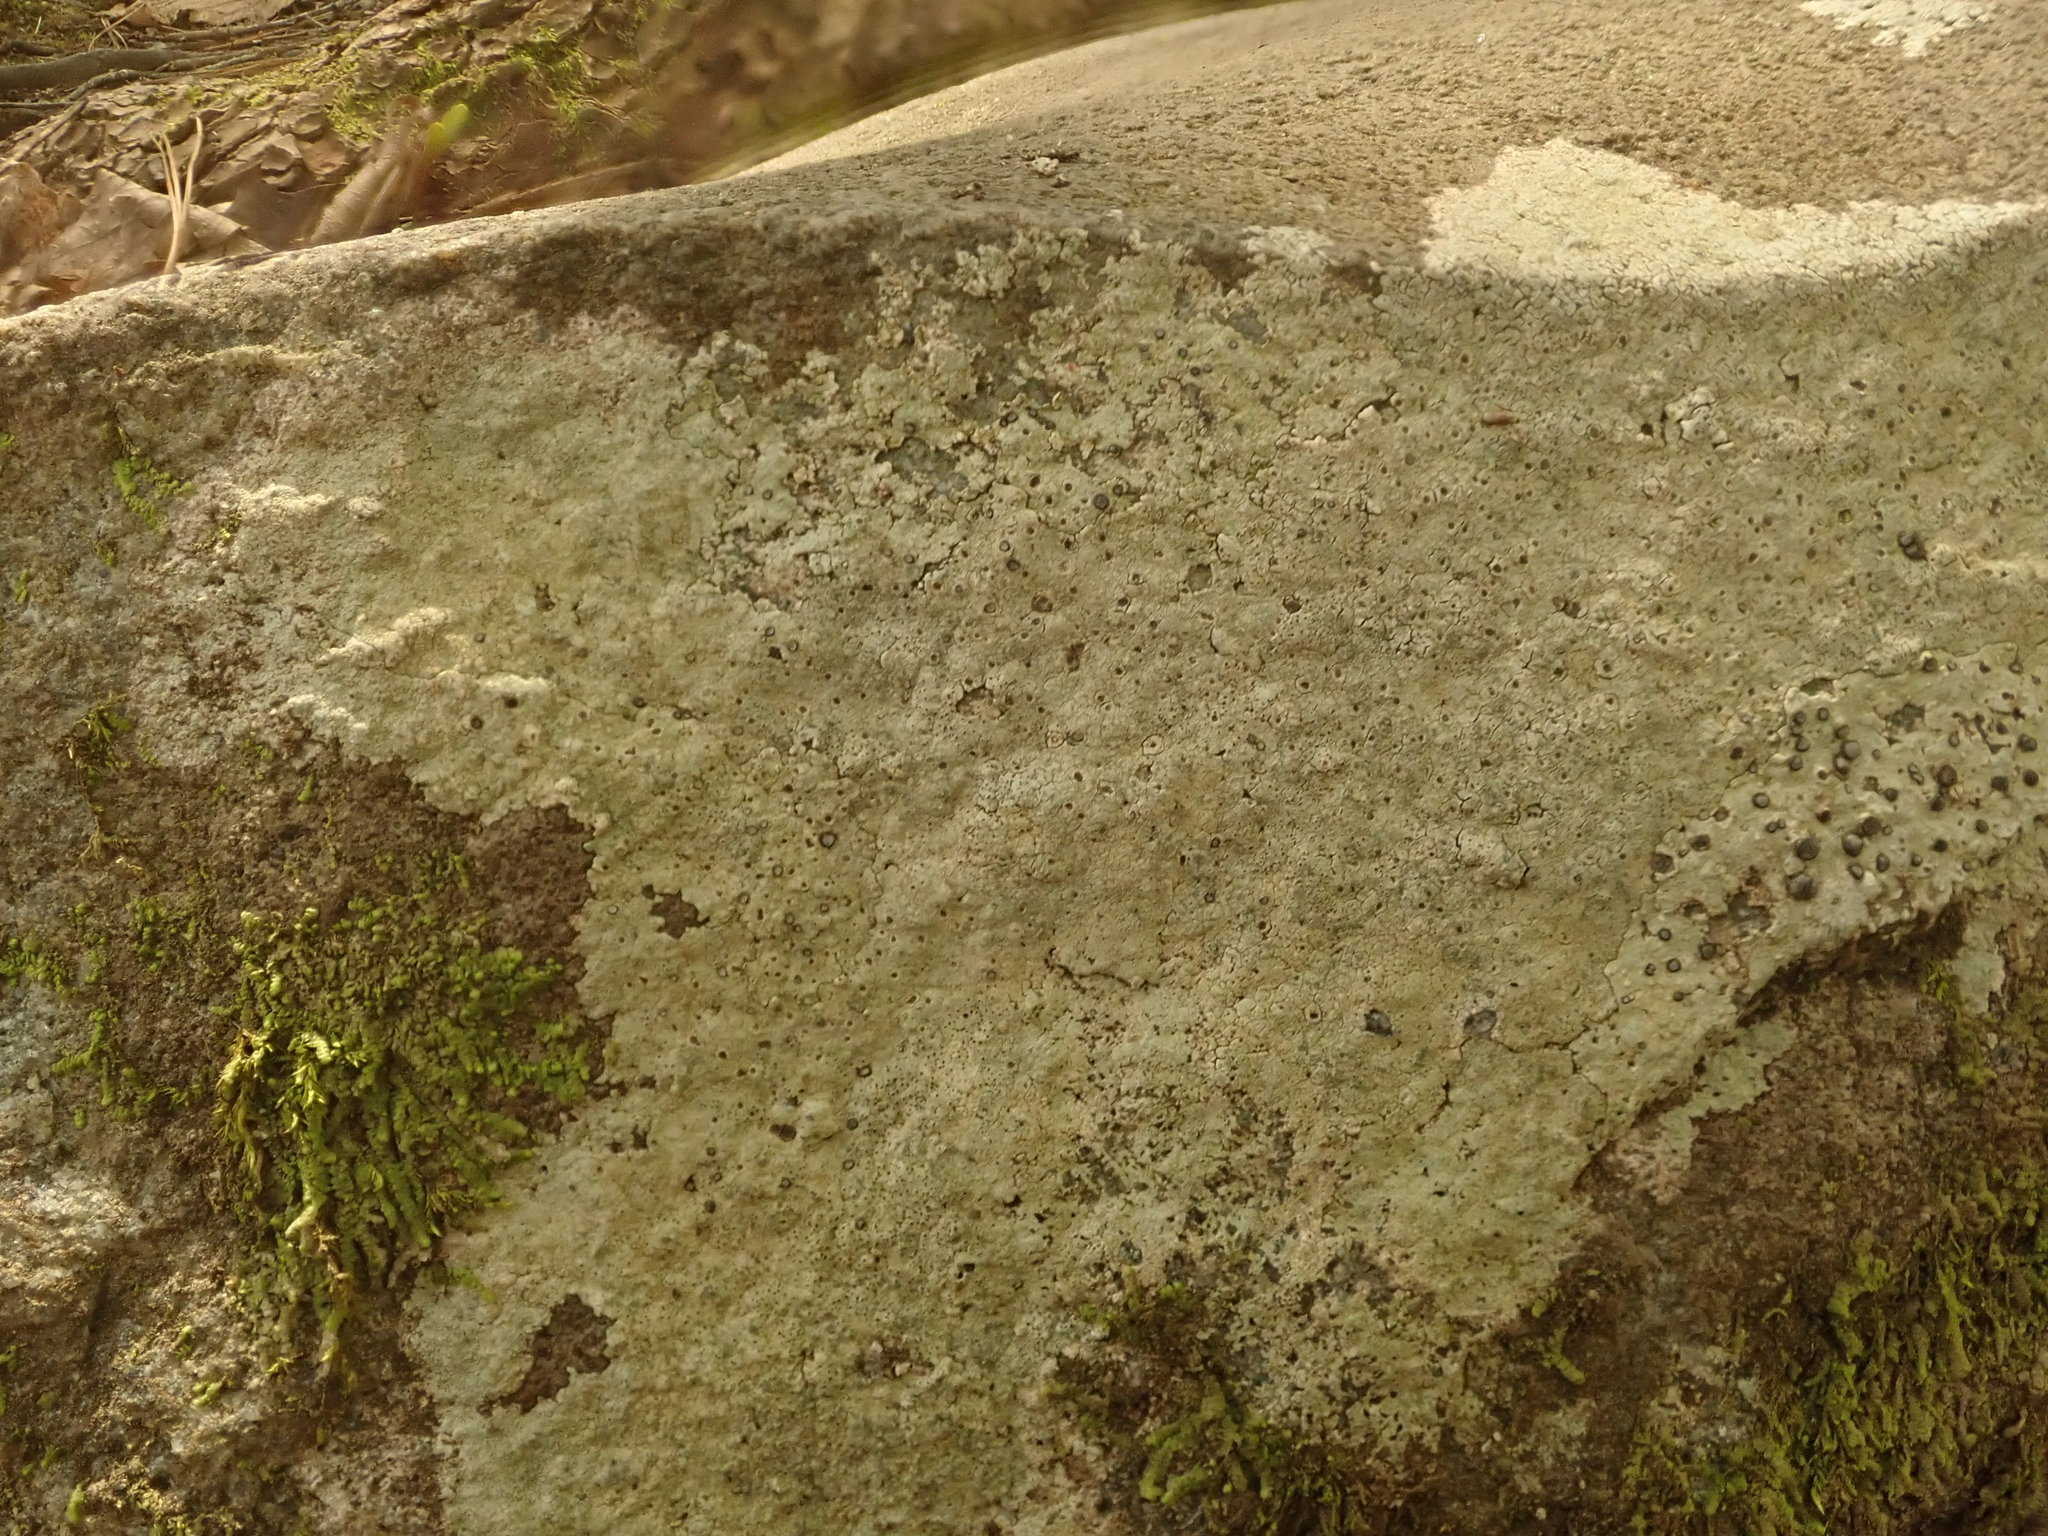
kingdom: Fungi
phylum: Ascomycota
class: Lecanoromycetes
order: Lecideales
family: Lecideaceae
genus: Porpidia
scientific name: Porpidia albocaerulescens
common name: Smokey-eyed boulder lichen
